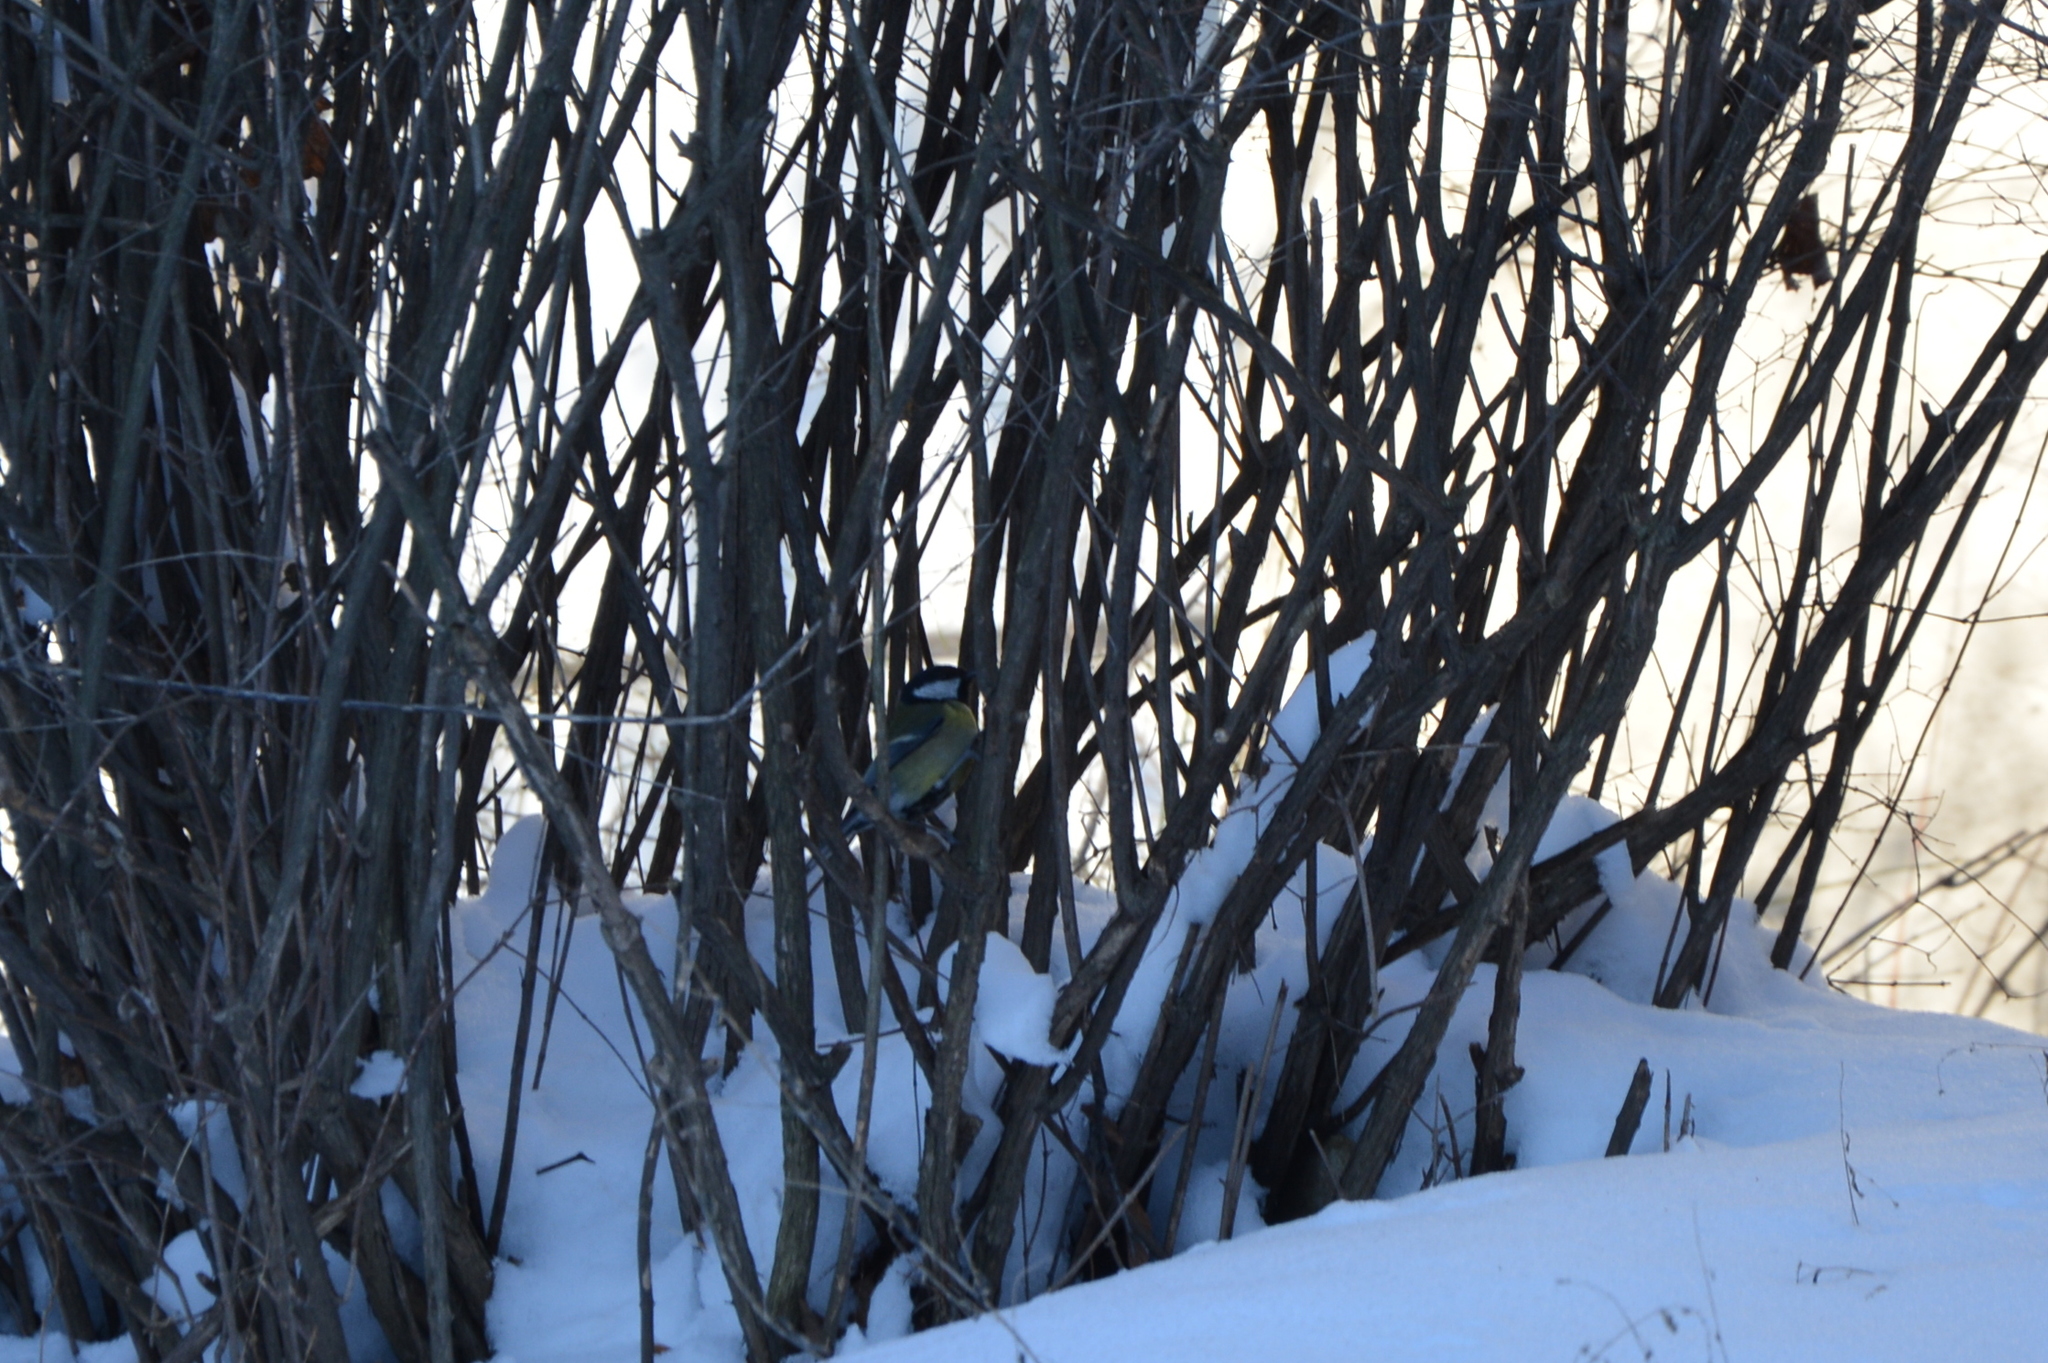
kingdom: Animalia
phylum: Chordata
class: Aves
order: Passeriformes
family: Paridae
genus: Parus
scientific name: Parus major
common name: Great tit
